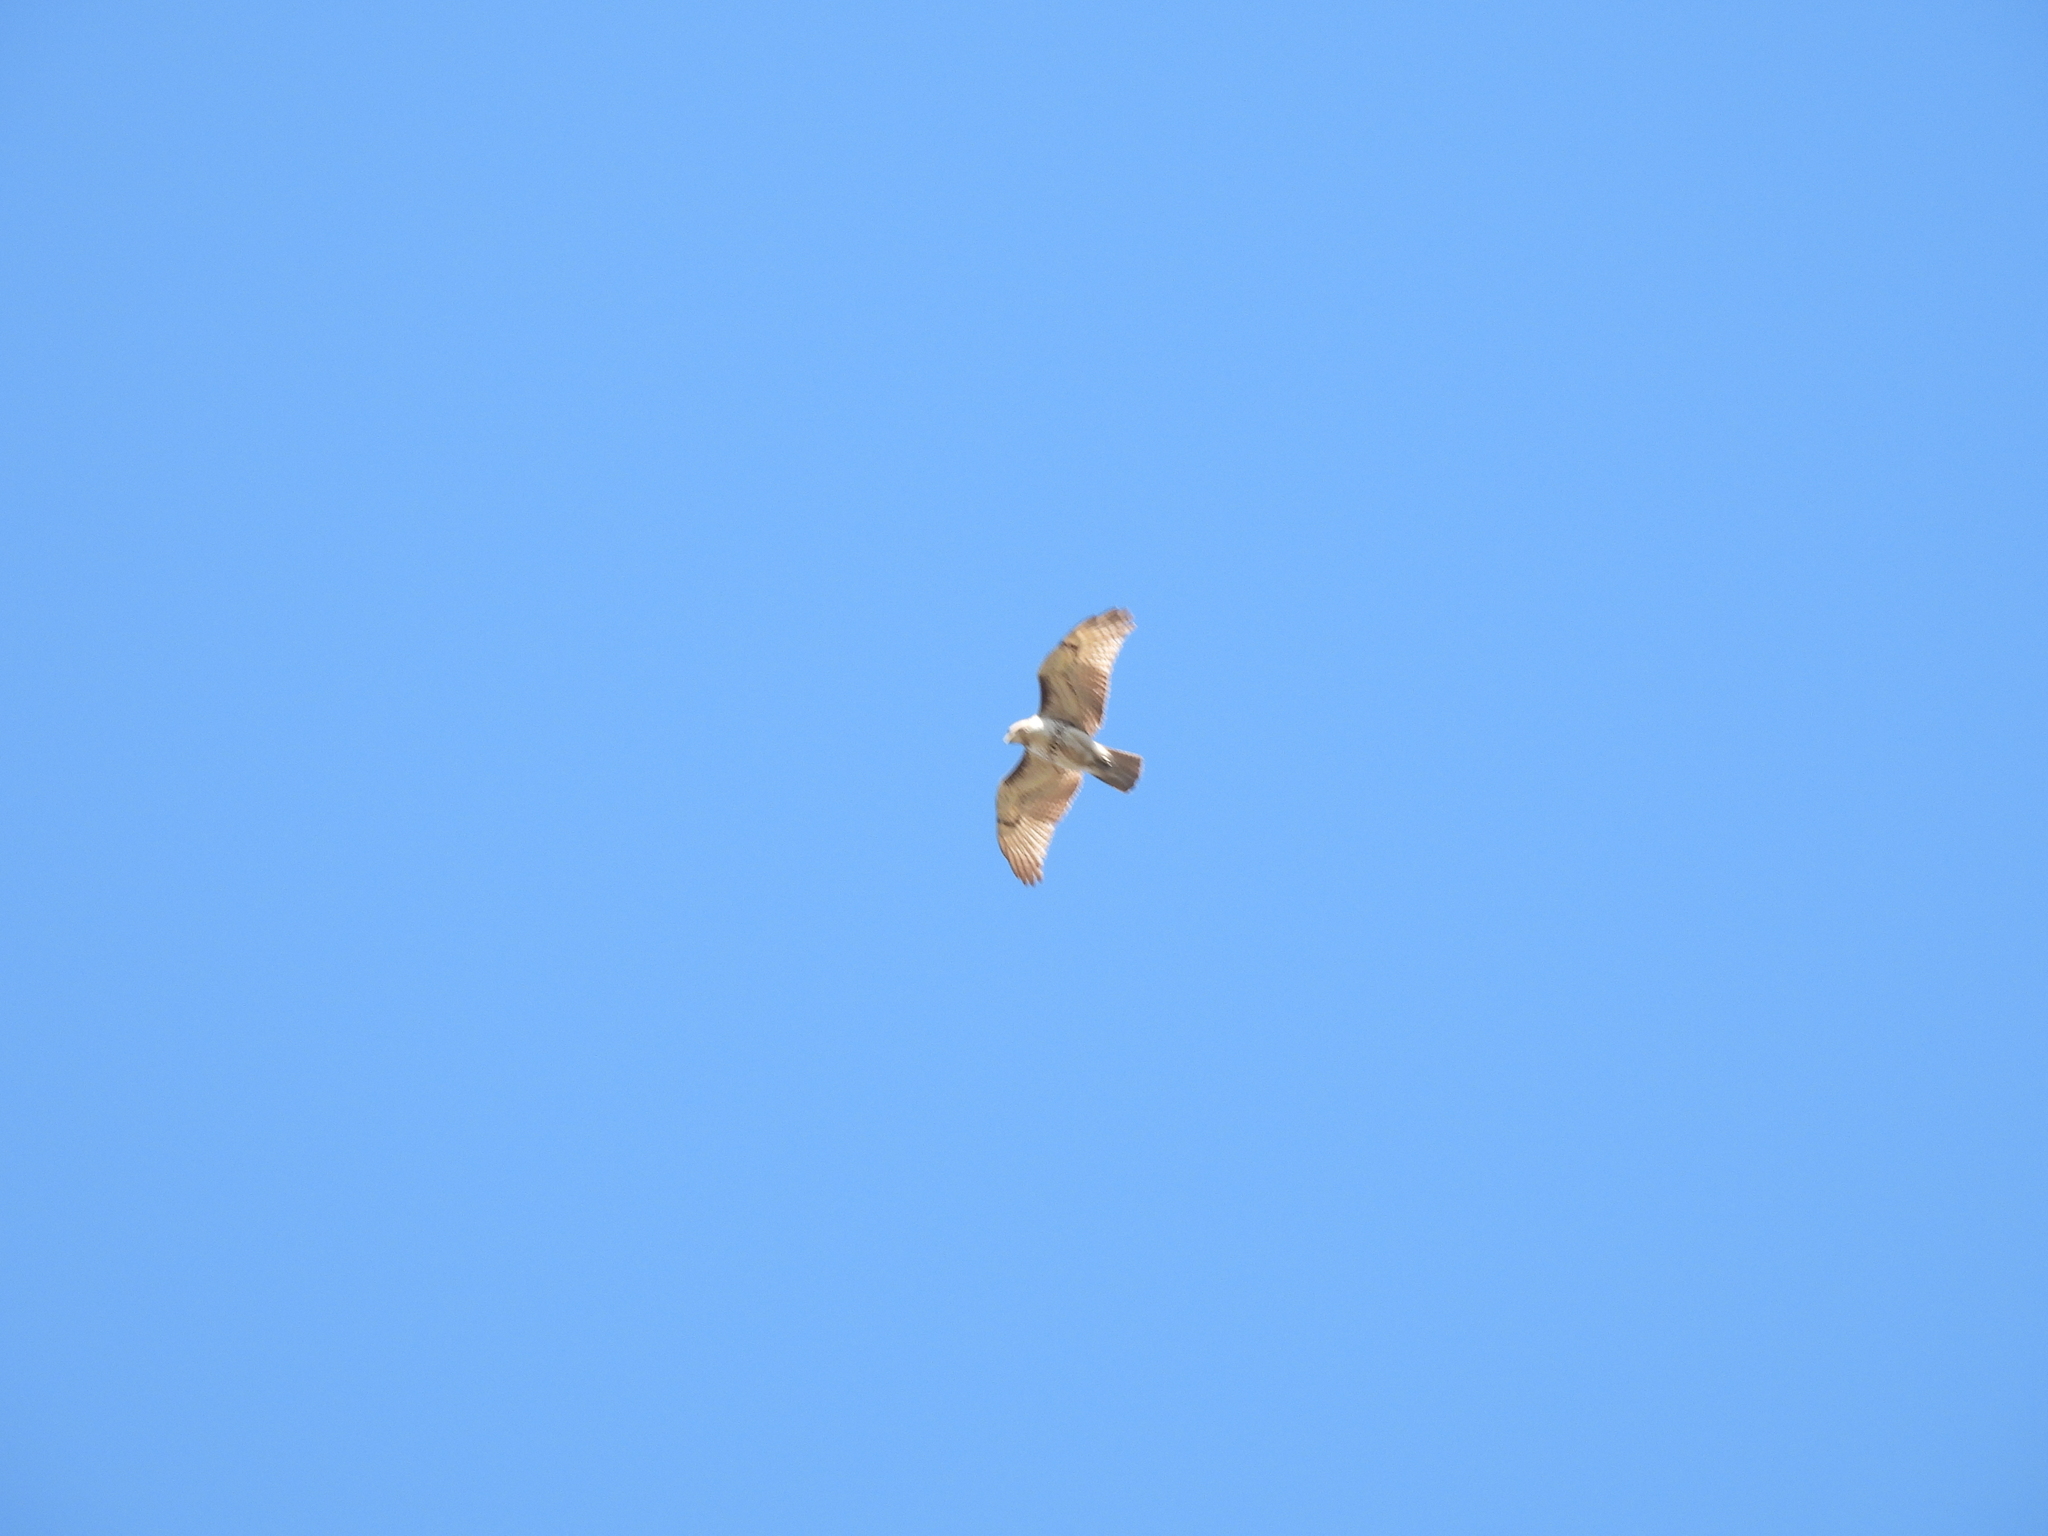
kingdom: Animalia
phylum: Chordata
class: Aves
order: Accipitriformes
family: Accipitridae
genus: Buteo
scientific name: Buteo jamaicensis
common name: Red-tailed hawk
